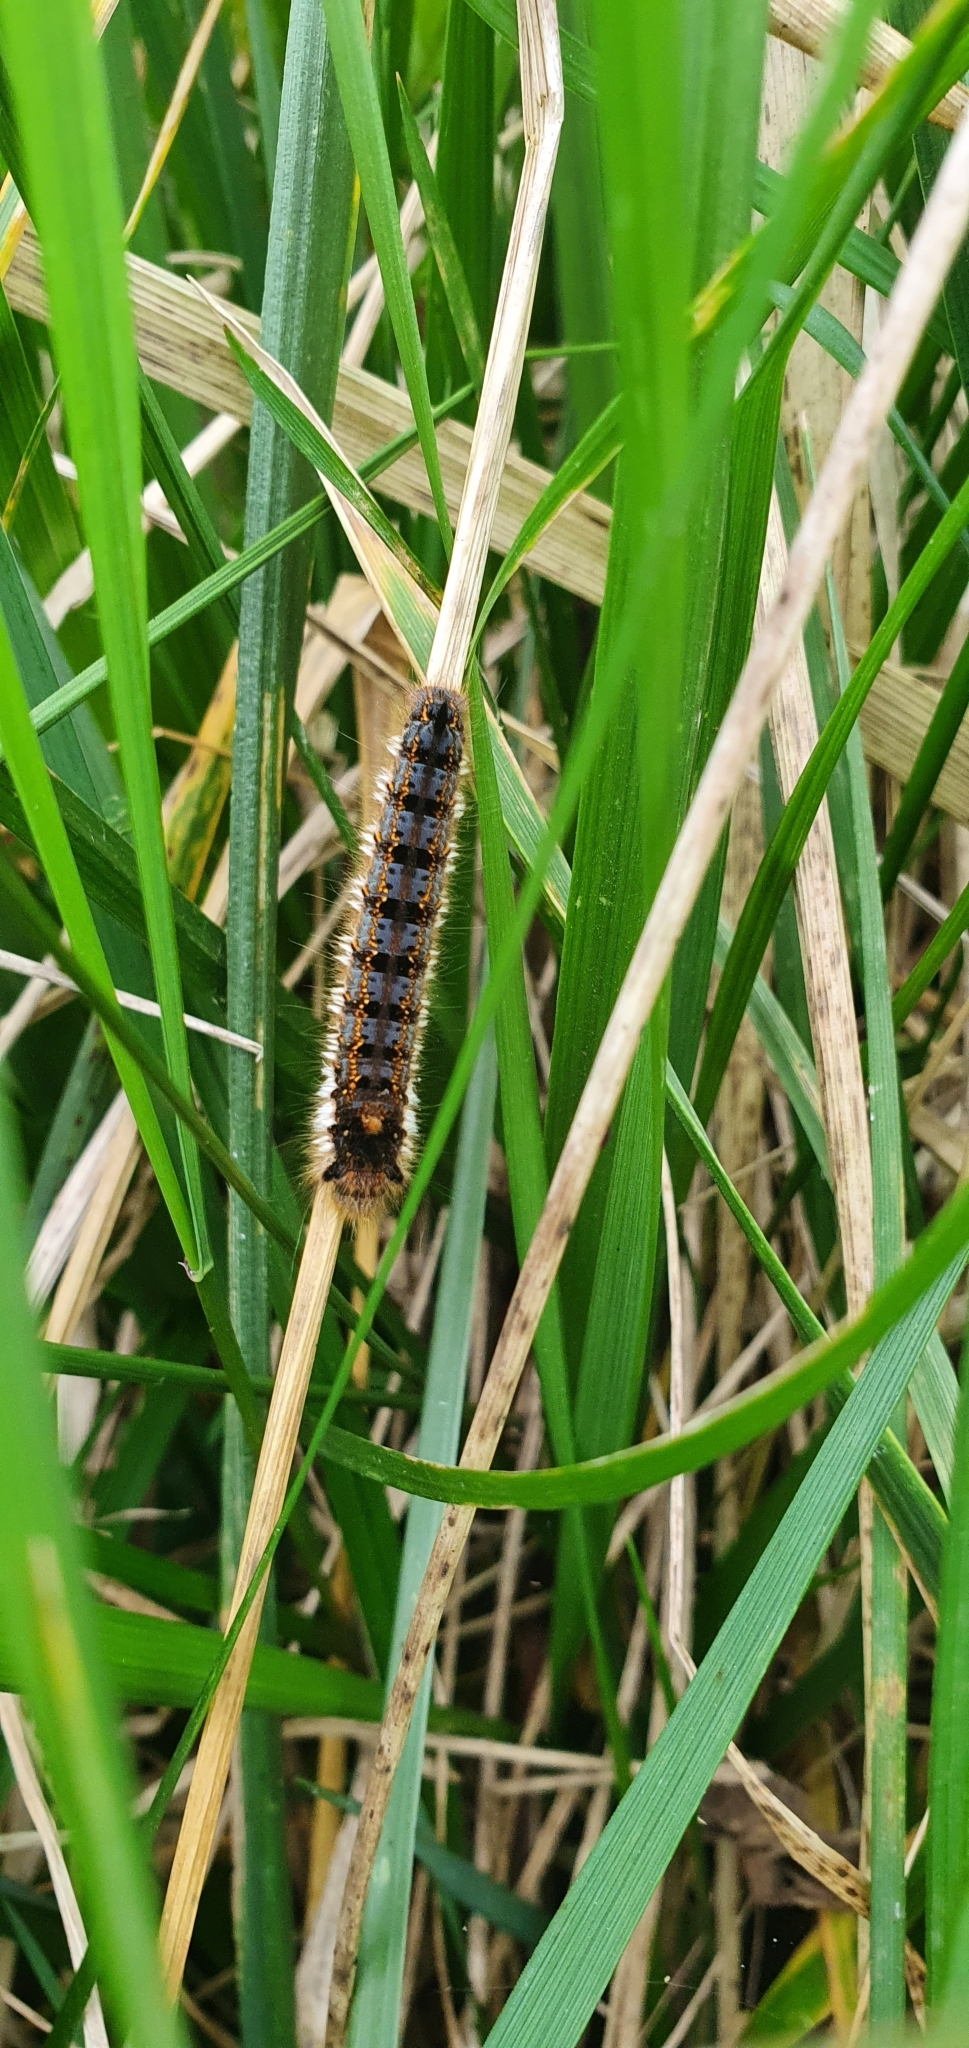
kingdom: Animalia
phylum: Arthropoda
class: Insecta
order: Lepidoptera
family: Lasiocampidae
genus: Euthrix
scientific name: Euthrix potatoria
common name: Drinker
